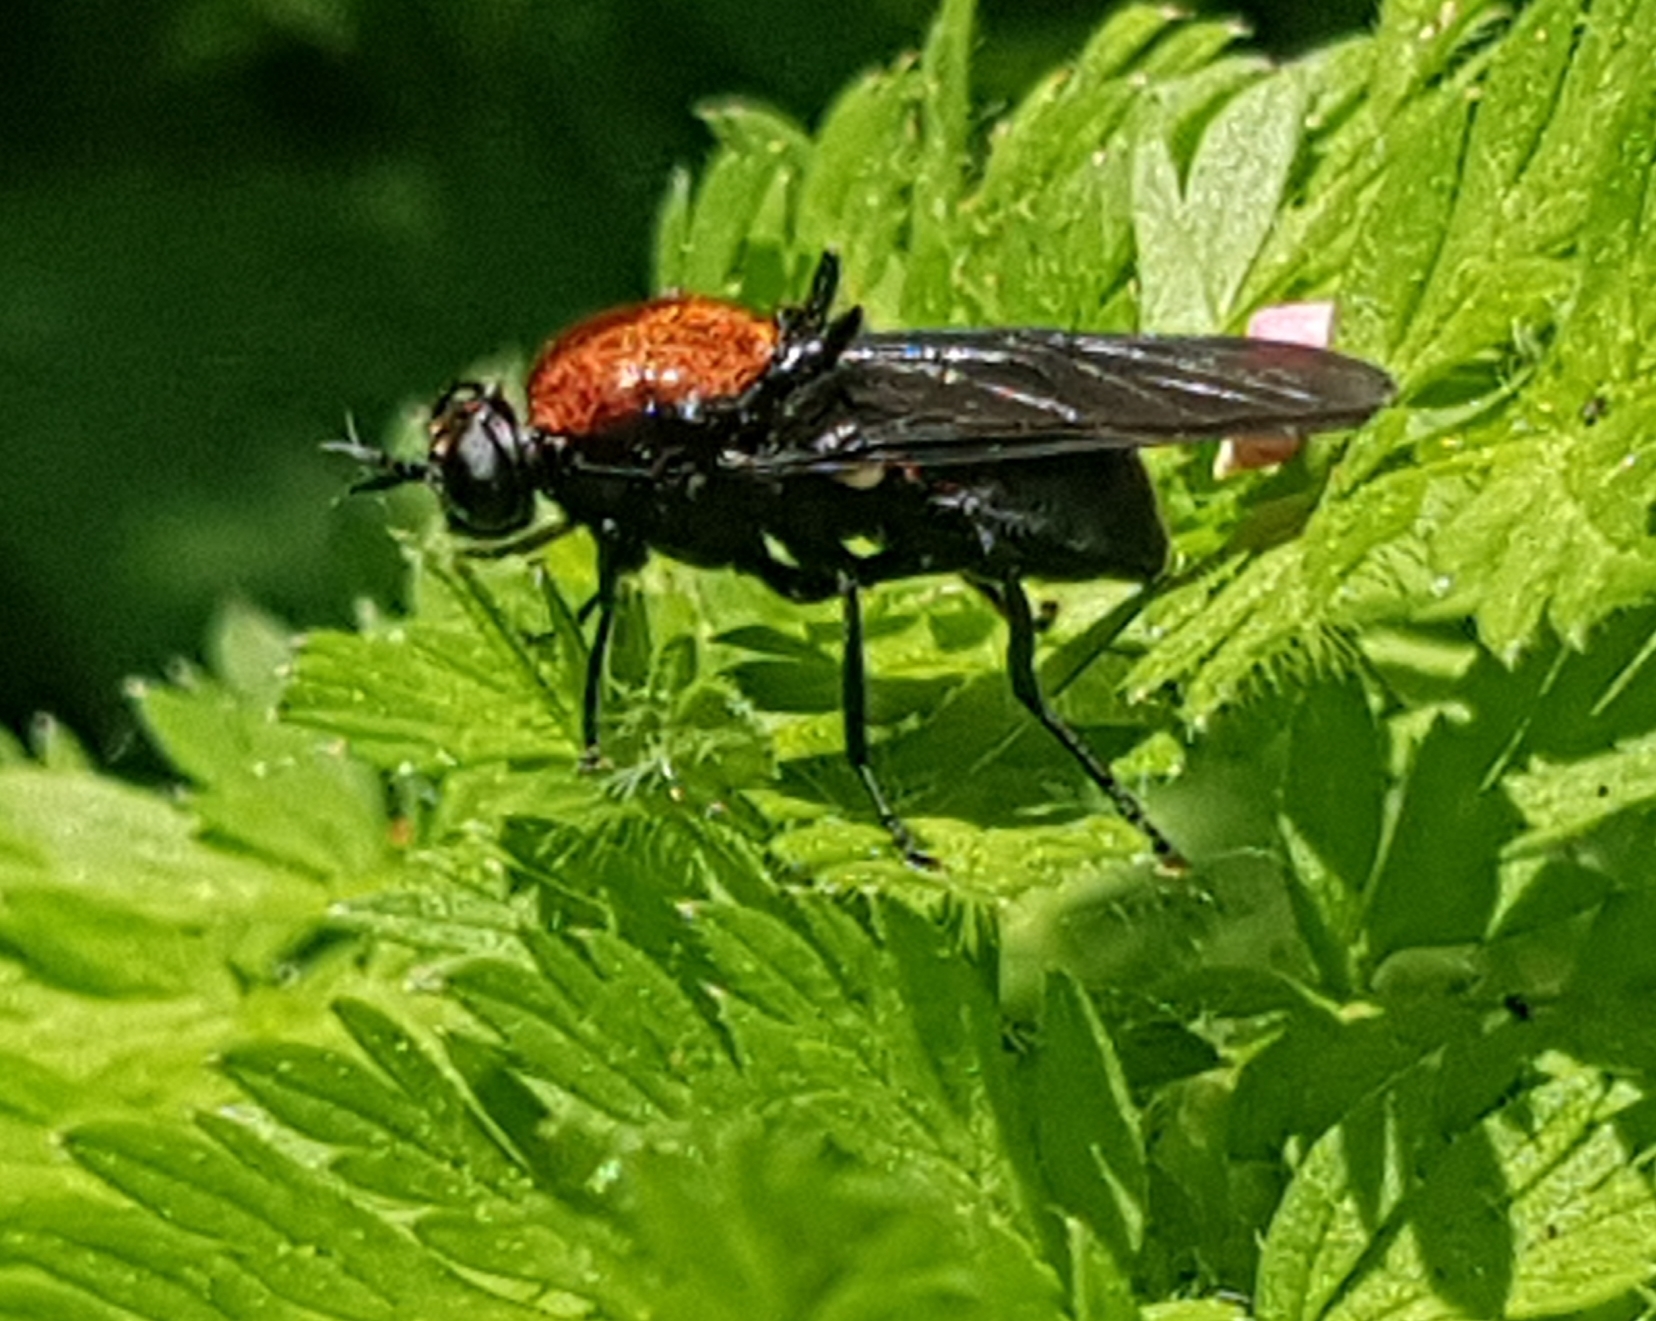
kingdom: Animalia
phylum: Arthropoda
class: Insecta
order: Diptera
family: Stratiomyidae
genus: Clitellaria
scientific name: Clitellaria ephippium
